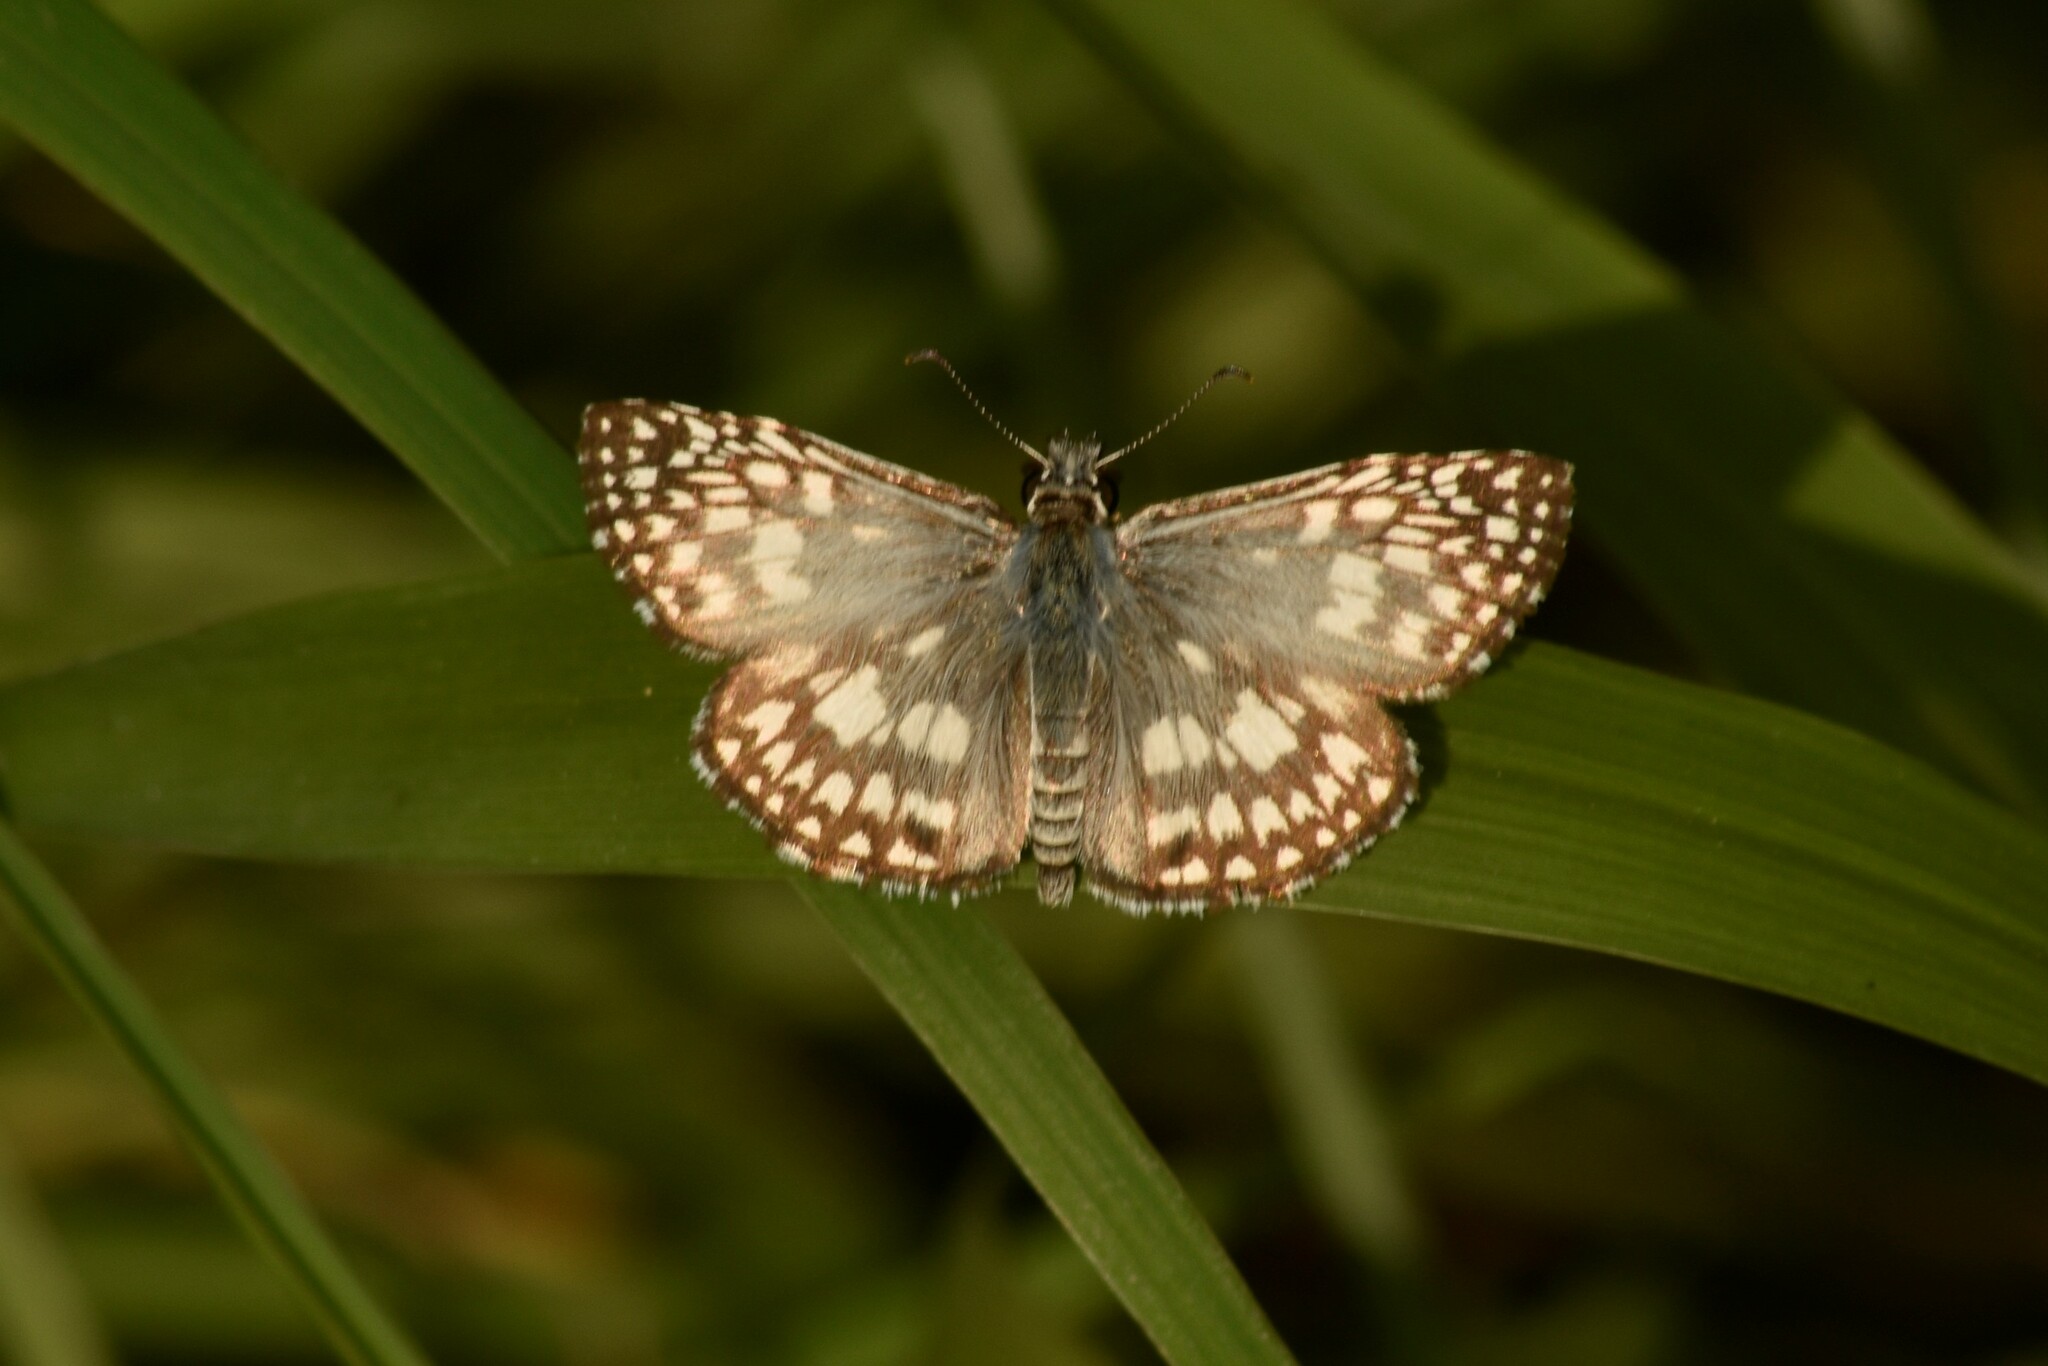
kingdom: Animalia
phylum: Arthropoda
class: Insecta
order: Lepidoptera
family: Hesperiidae
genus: Pyrgus
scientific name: Pyrgus oileus
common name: Tropical checkered-skipper
